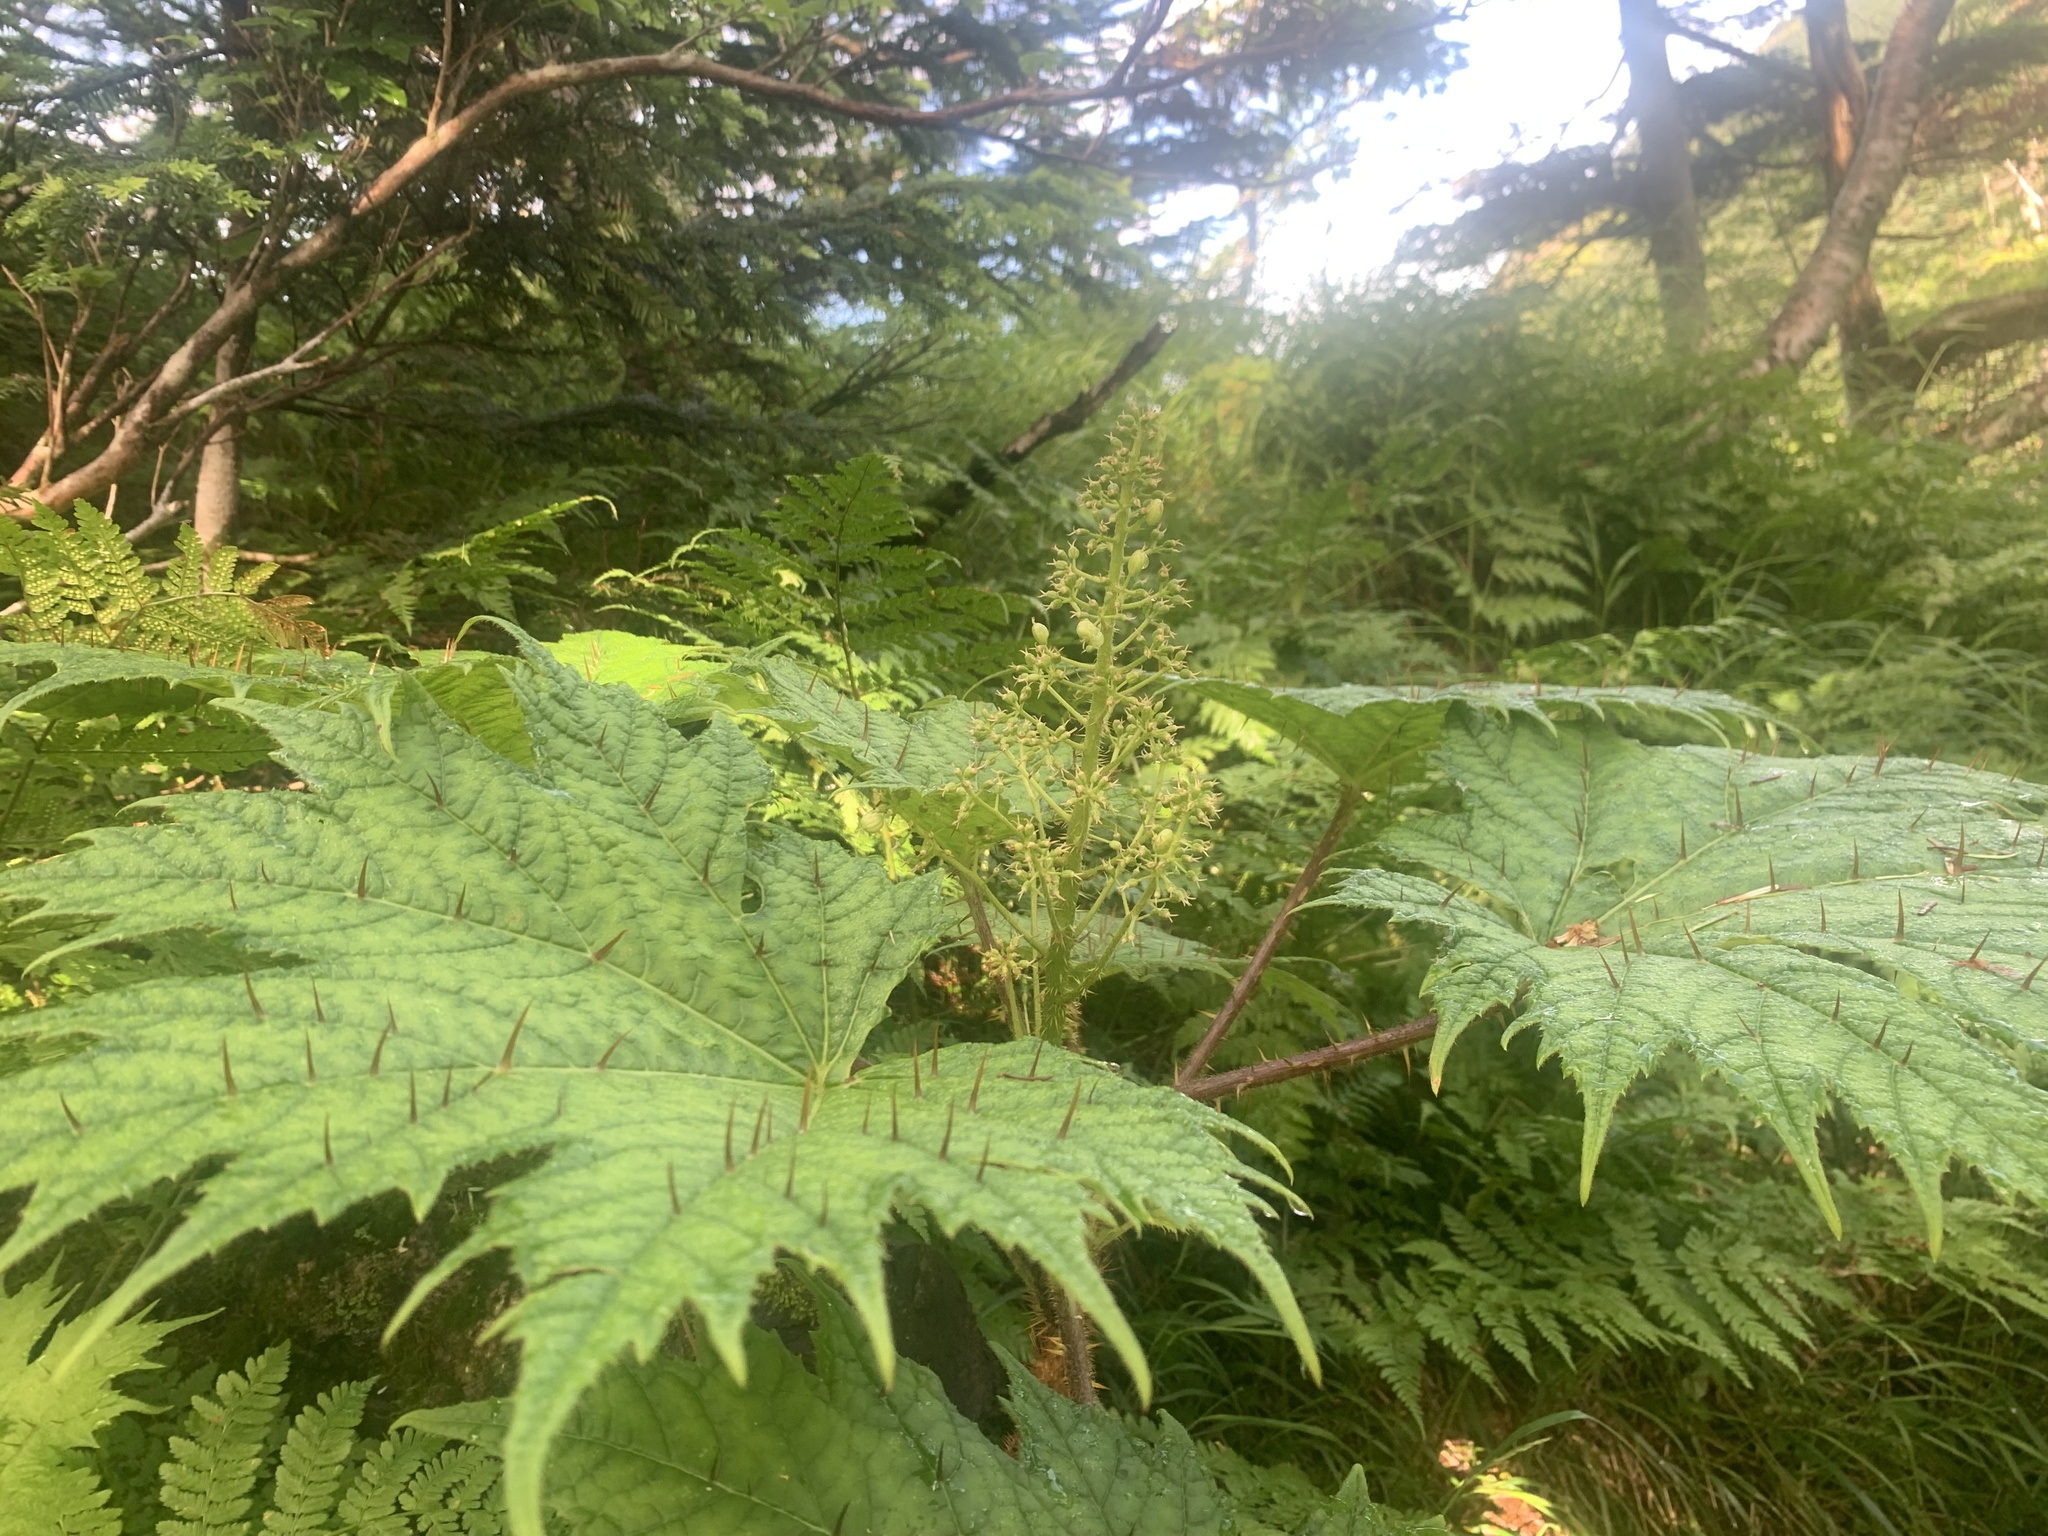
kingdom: Plantae
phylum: Tracheophyta
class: Magnoliopsida
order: Apiales
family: Araliaceae
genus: Oplopanax
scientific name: Oplopanax japonicus
